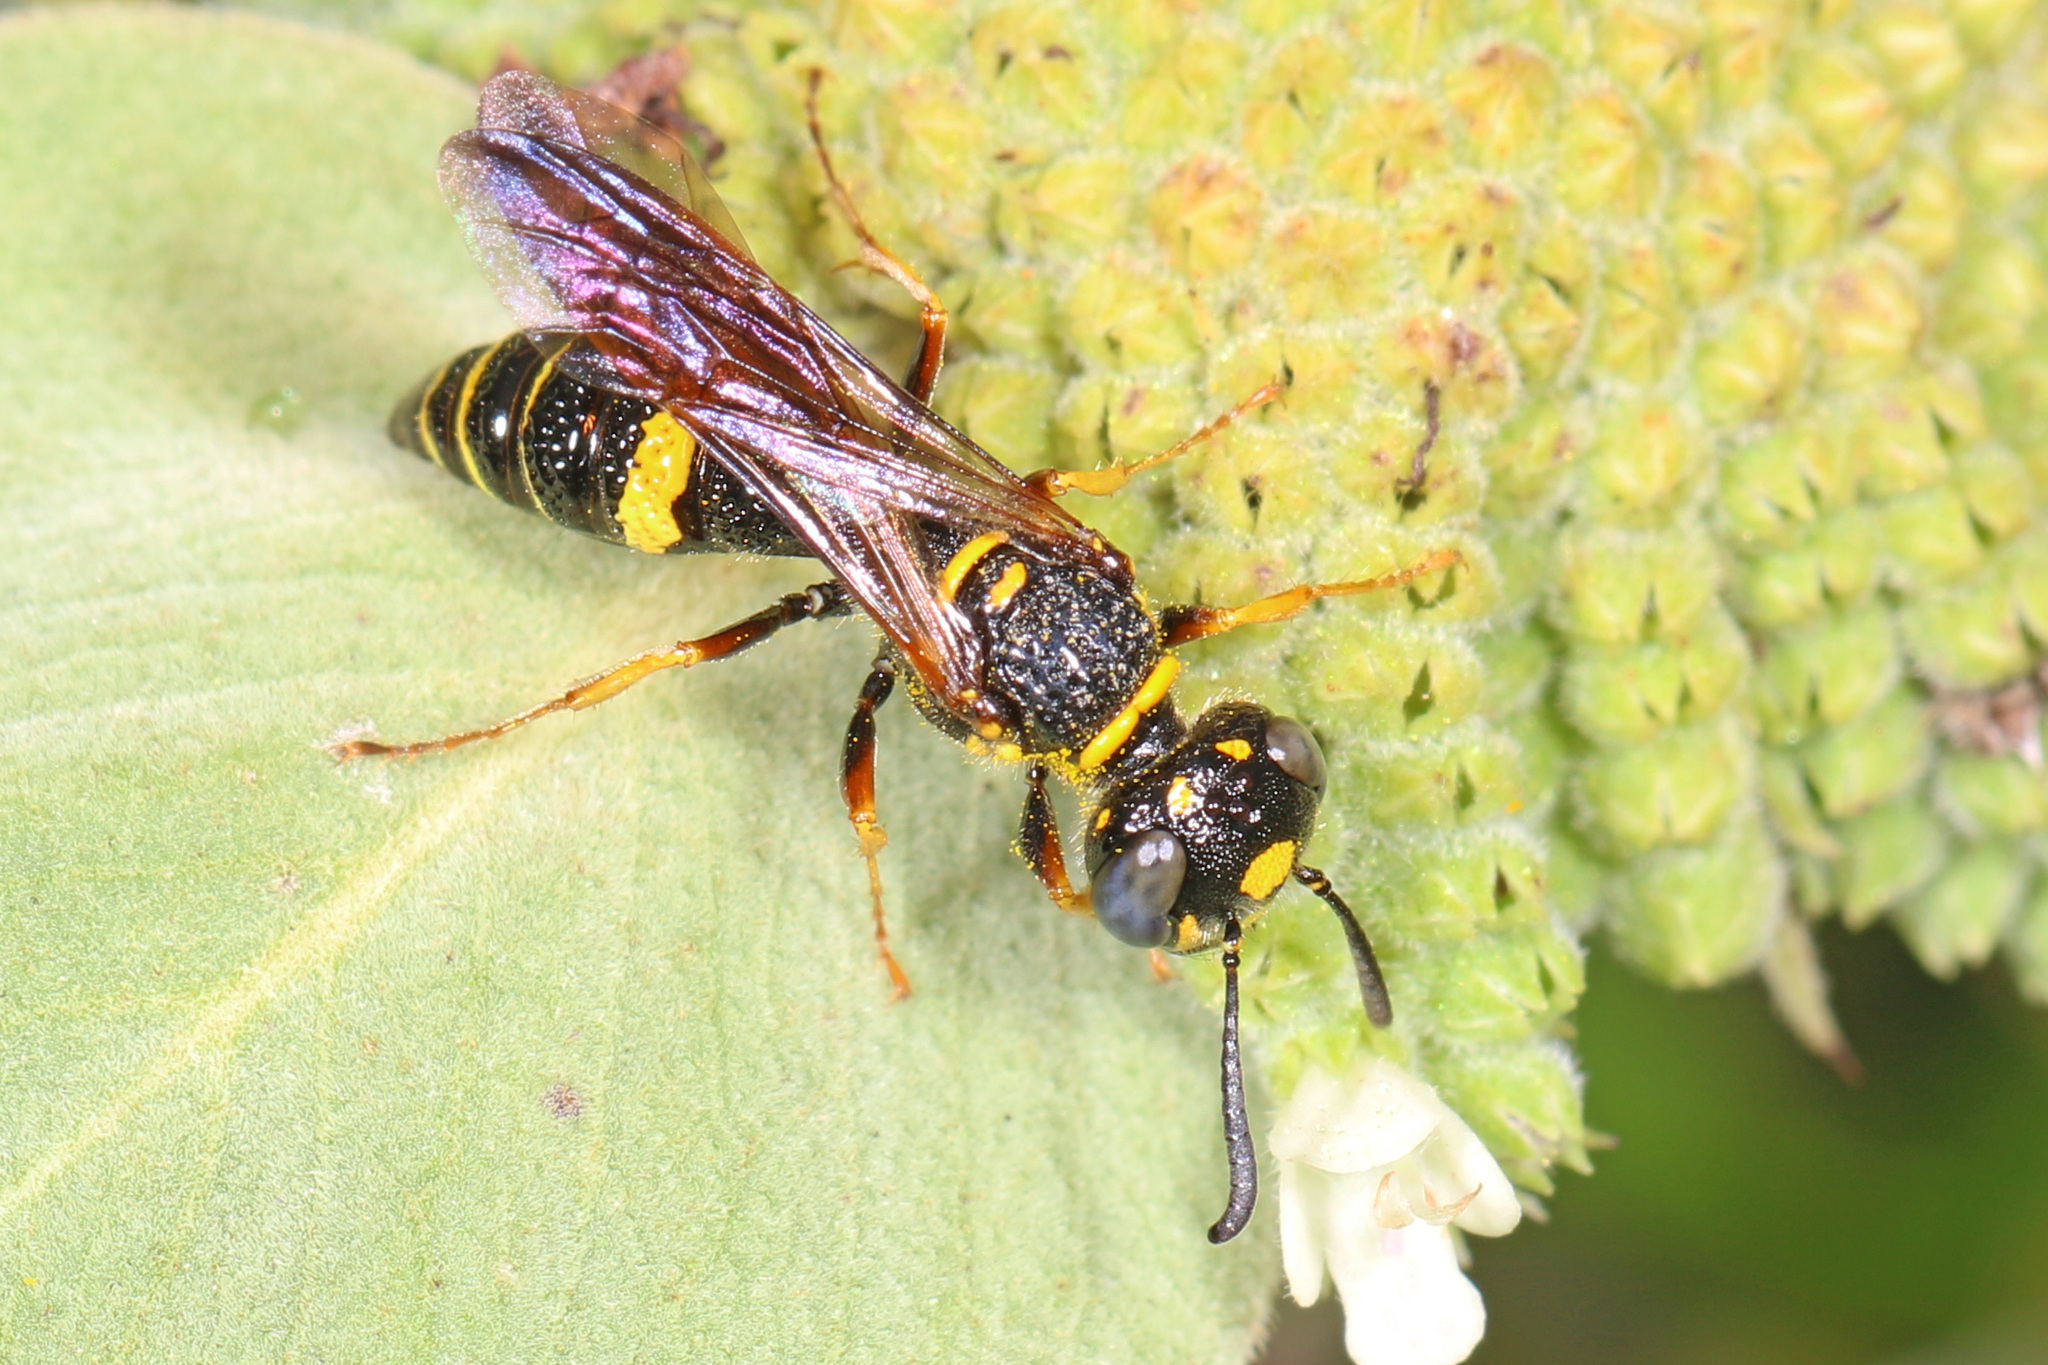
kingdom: Animalia
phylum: Arthropoda
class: Insecta
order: Hymenoptera
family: Crabronidae
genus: Philanthus
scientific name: Philanthus gibbosus
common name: Humped beewolf
